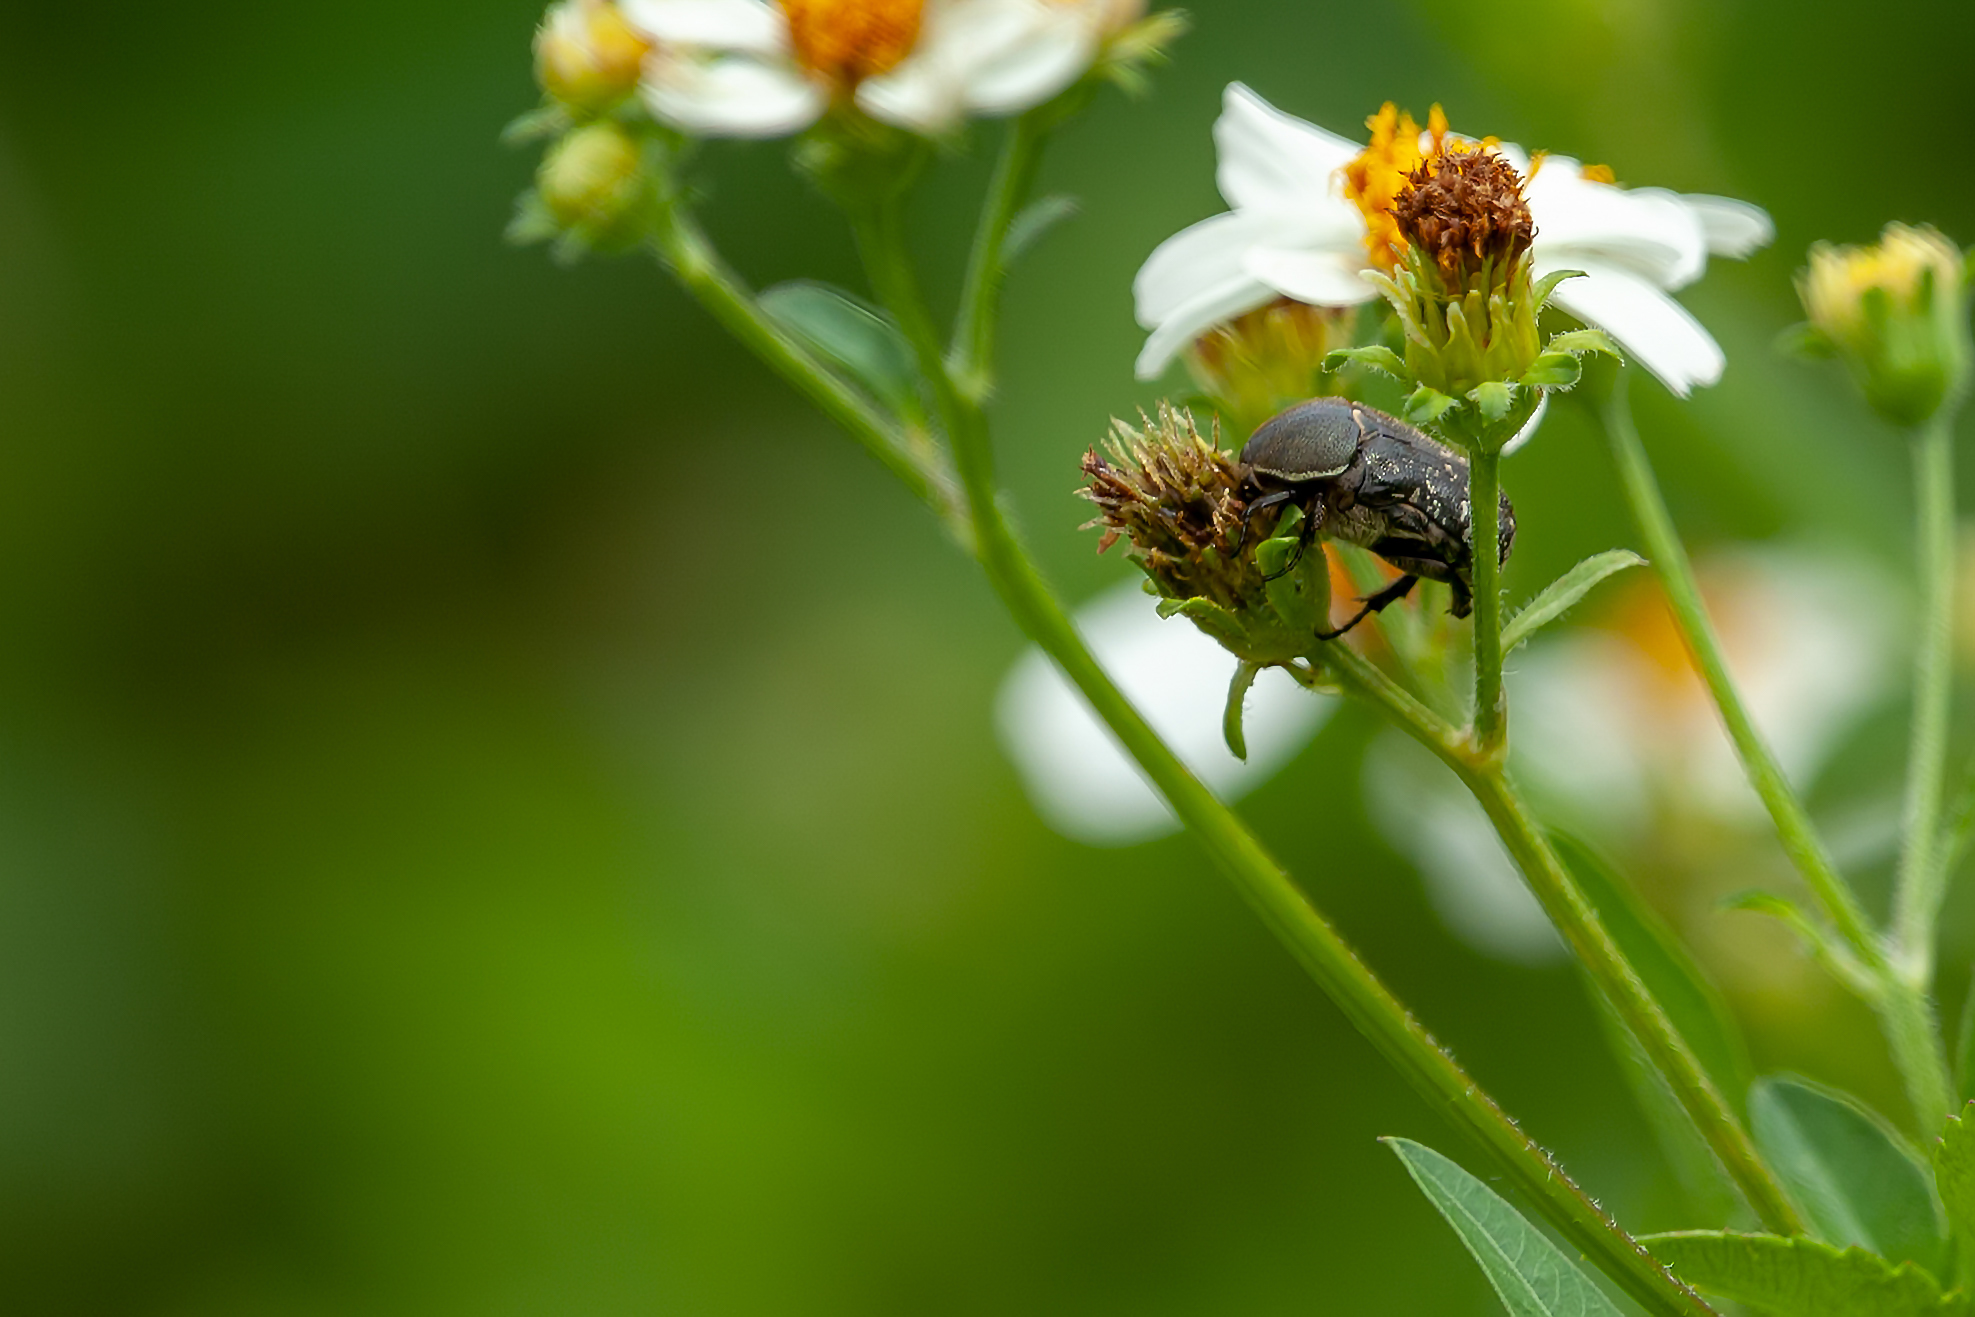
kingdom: Animalia
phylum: Arthropoda
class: Insecta
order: Coleoptera
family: Scarabaeidae
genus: Euphoria
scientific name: Euphoria sepulcralis
